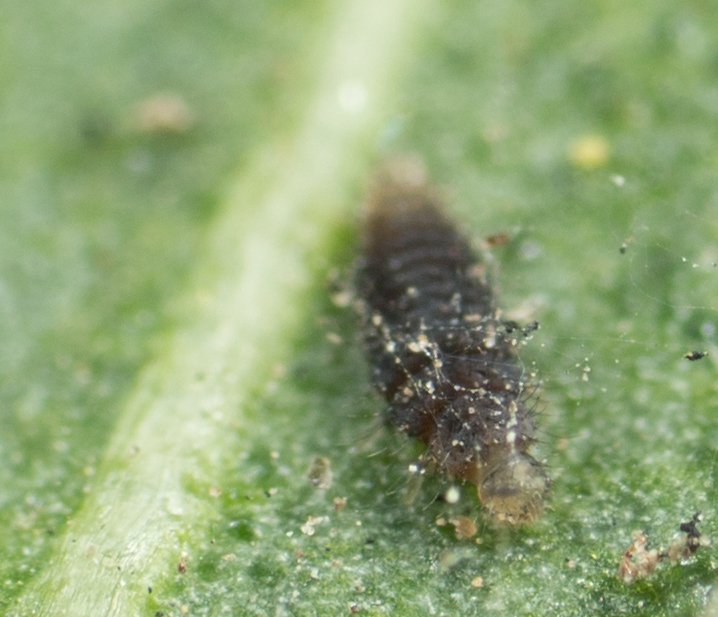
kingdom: Animalia
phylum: Arthropoda
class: Insecta
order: Coleoptera
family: Coccinellidae
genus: Stethorus
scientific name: Stethorus punctum
